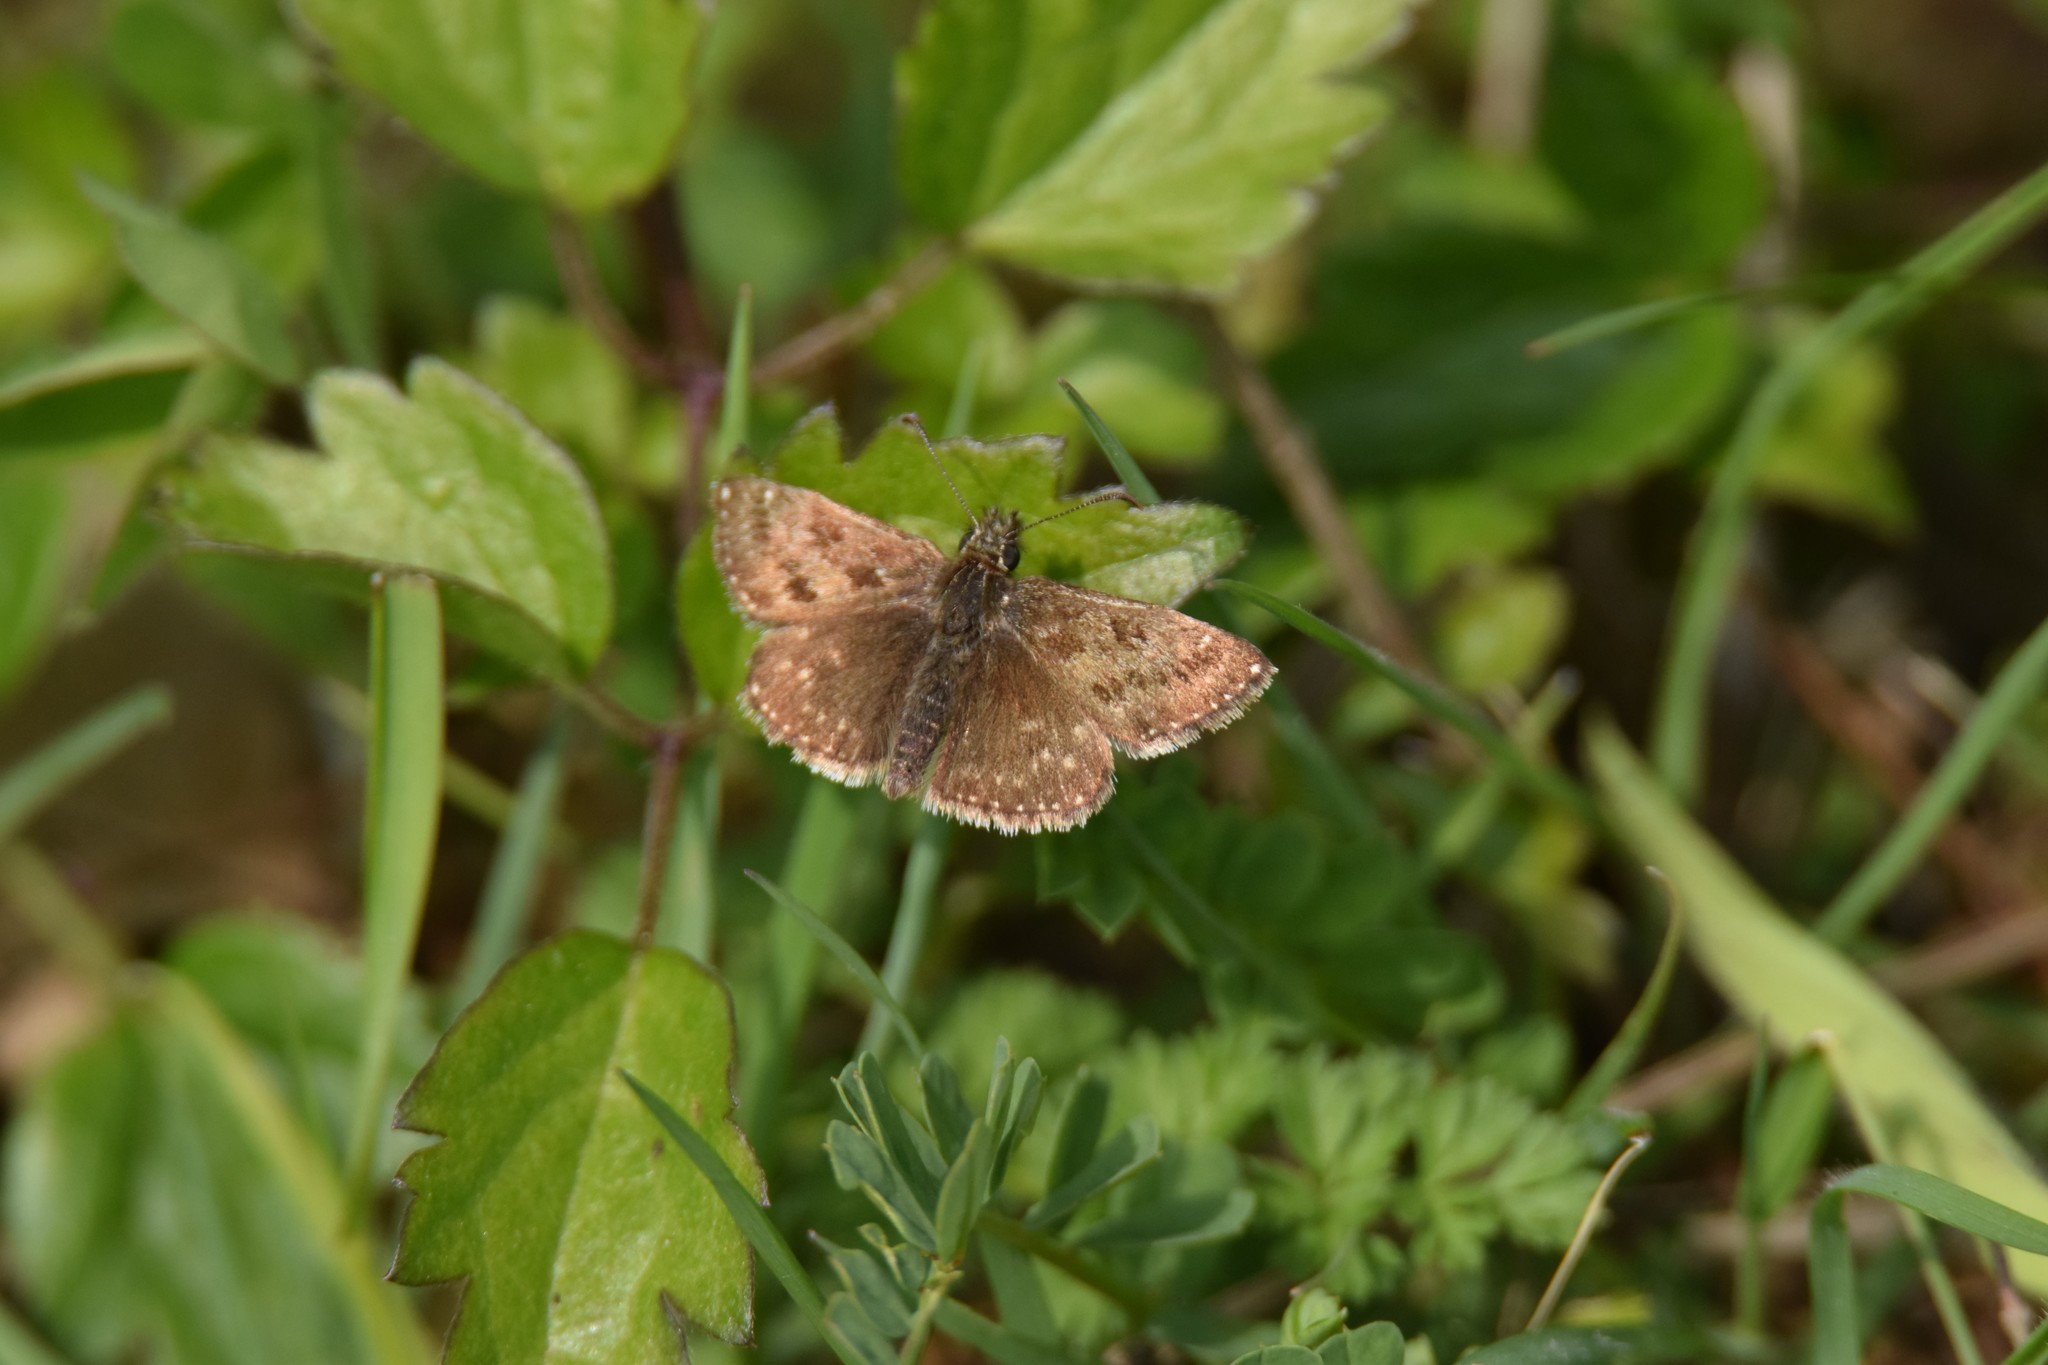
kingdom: Animalia
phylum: Arthropoda
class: Insecta
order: Lepidoptera
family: Hesperiidae
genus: Erynnis
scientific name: Erynnis tages
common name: Dingy skipper
